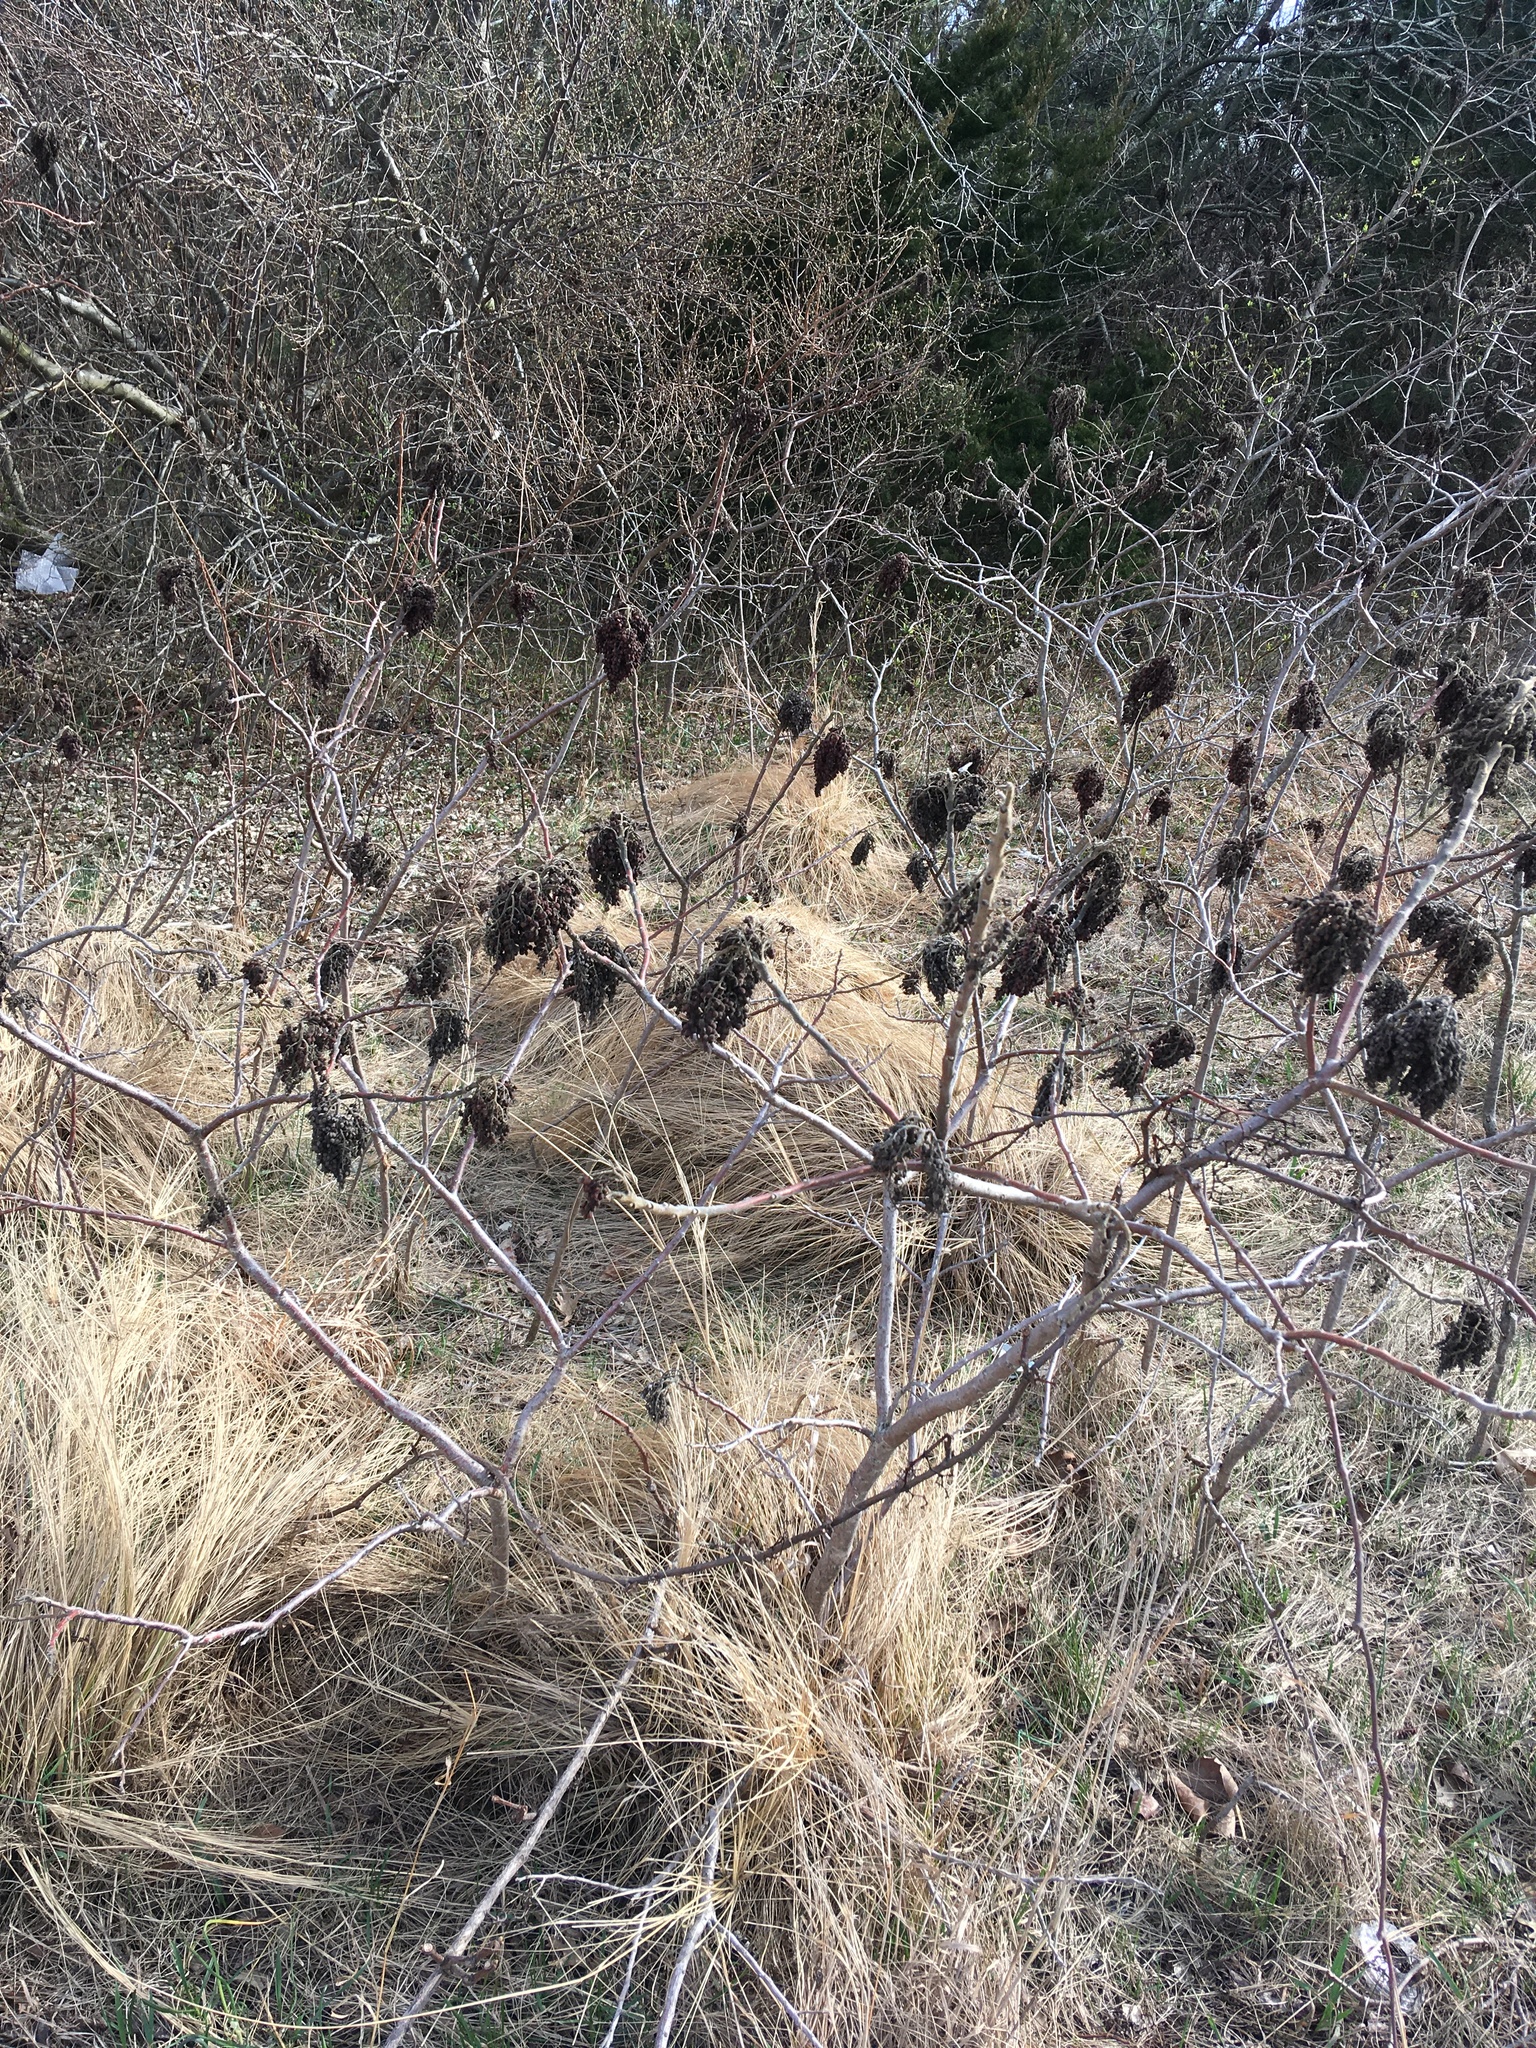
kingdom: Plantae
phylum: Tracheophyta
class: Magnoliopsida
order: Sapindales
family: Anacardiaceae
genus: Rhus
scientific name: Rhus copallina
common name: Shining sumac
